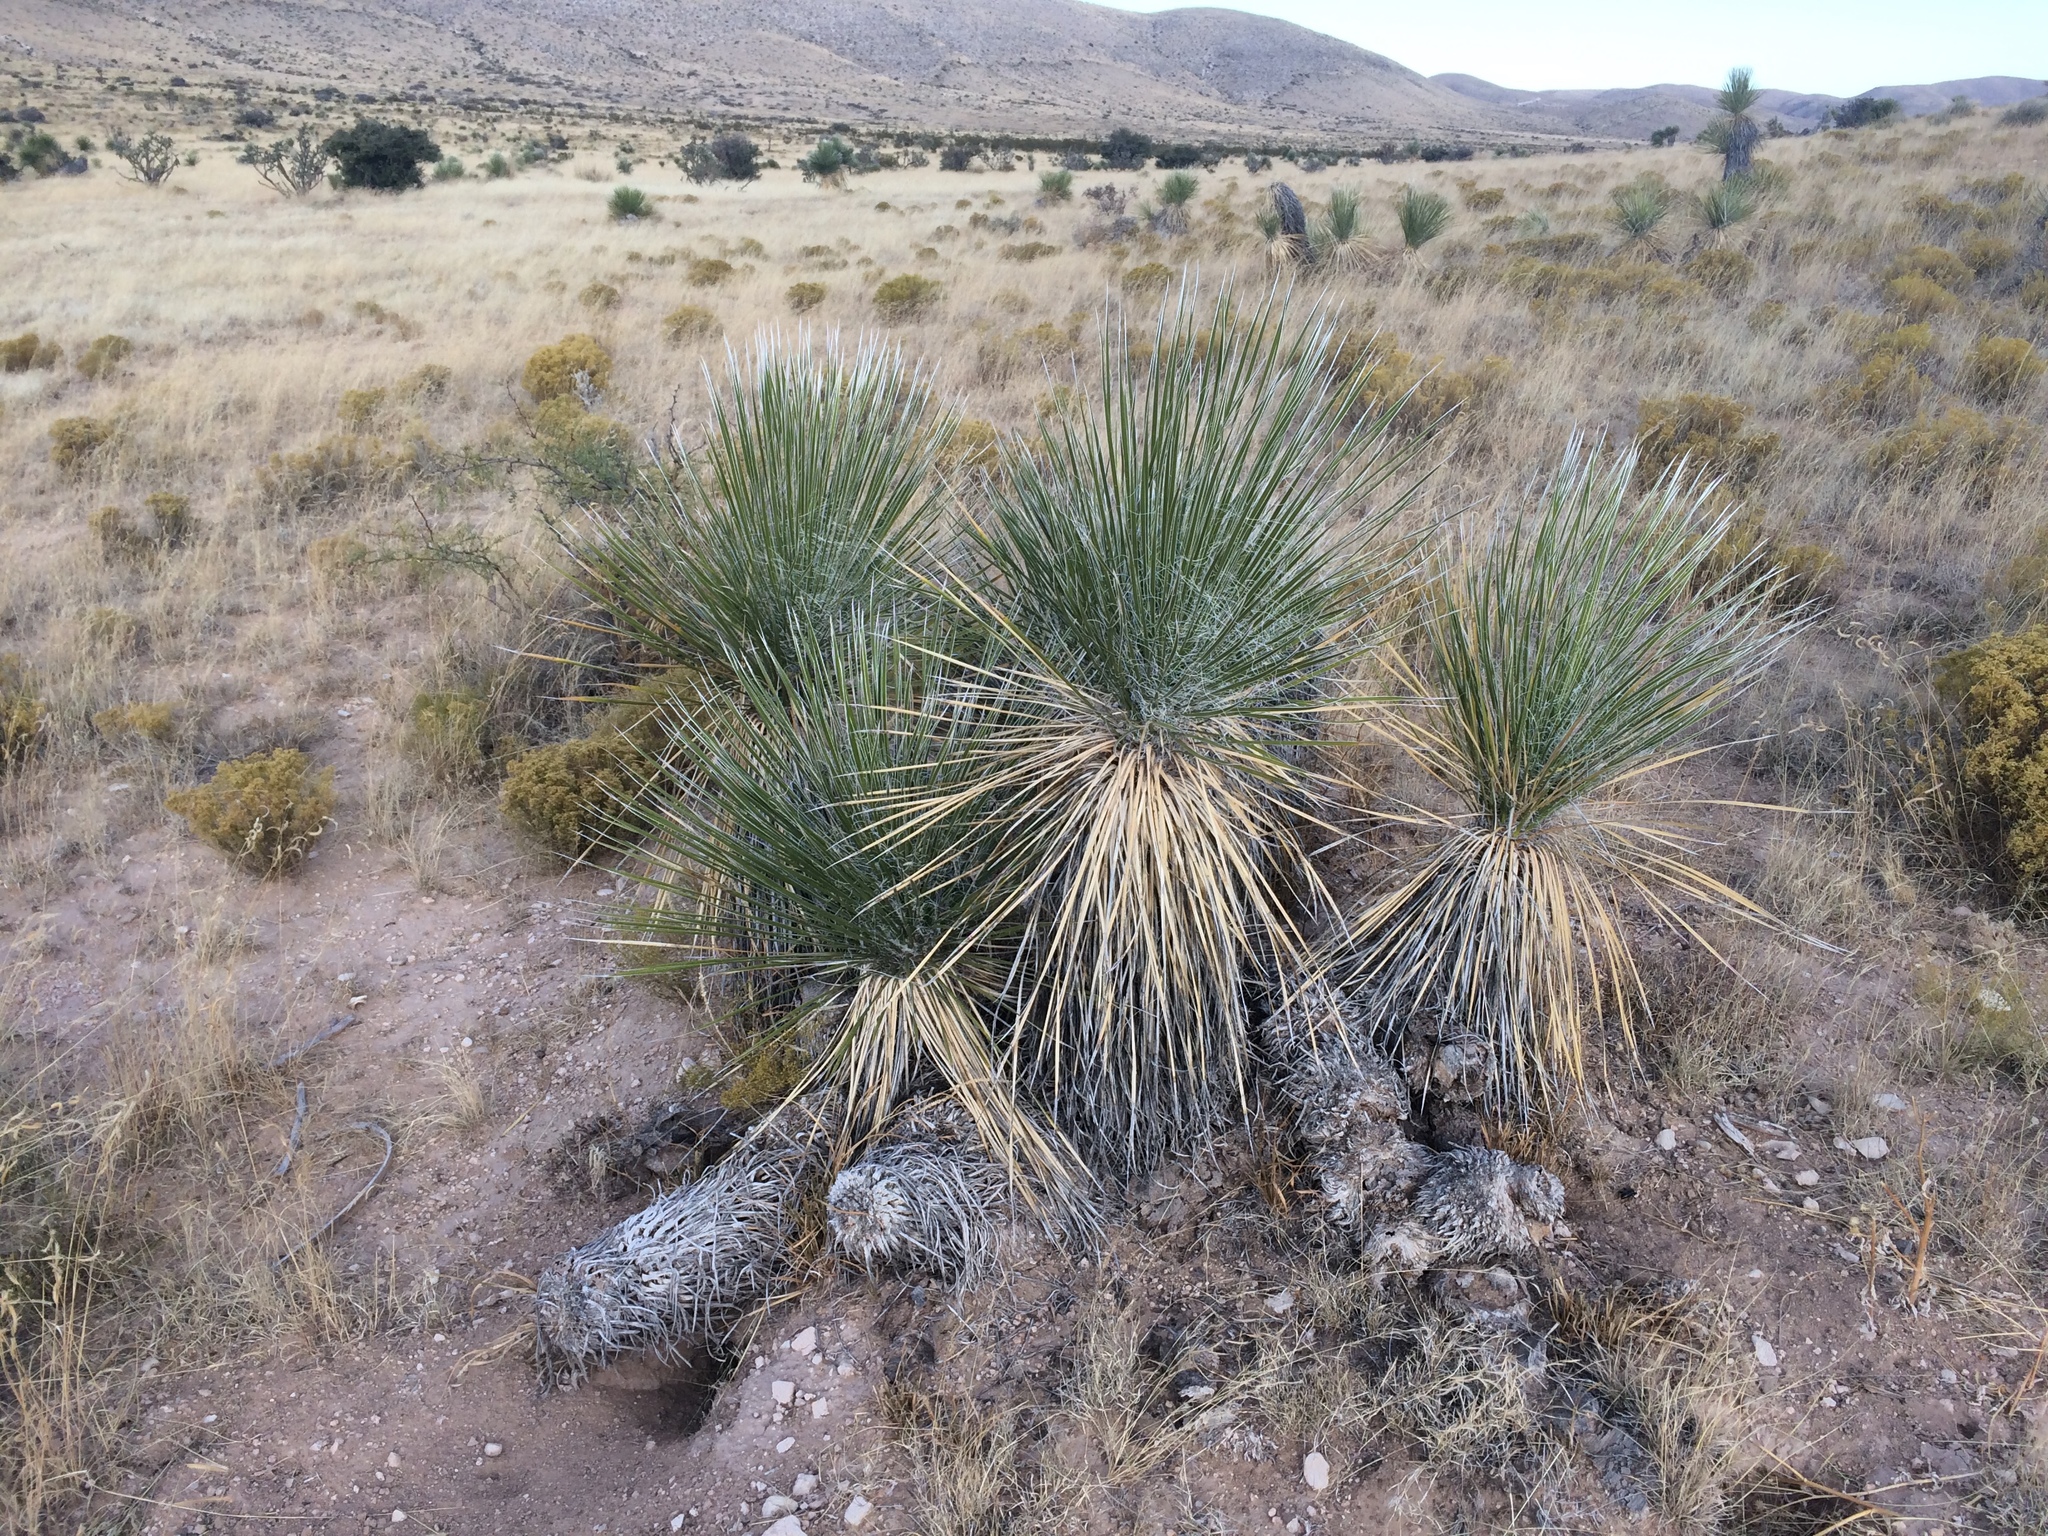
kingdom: Plantae
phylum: Tracheophyta
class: Liliopsida
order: Asparagales
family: Asparagaceae
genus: Yucca
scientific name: Yucca elata
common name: Palmella
